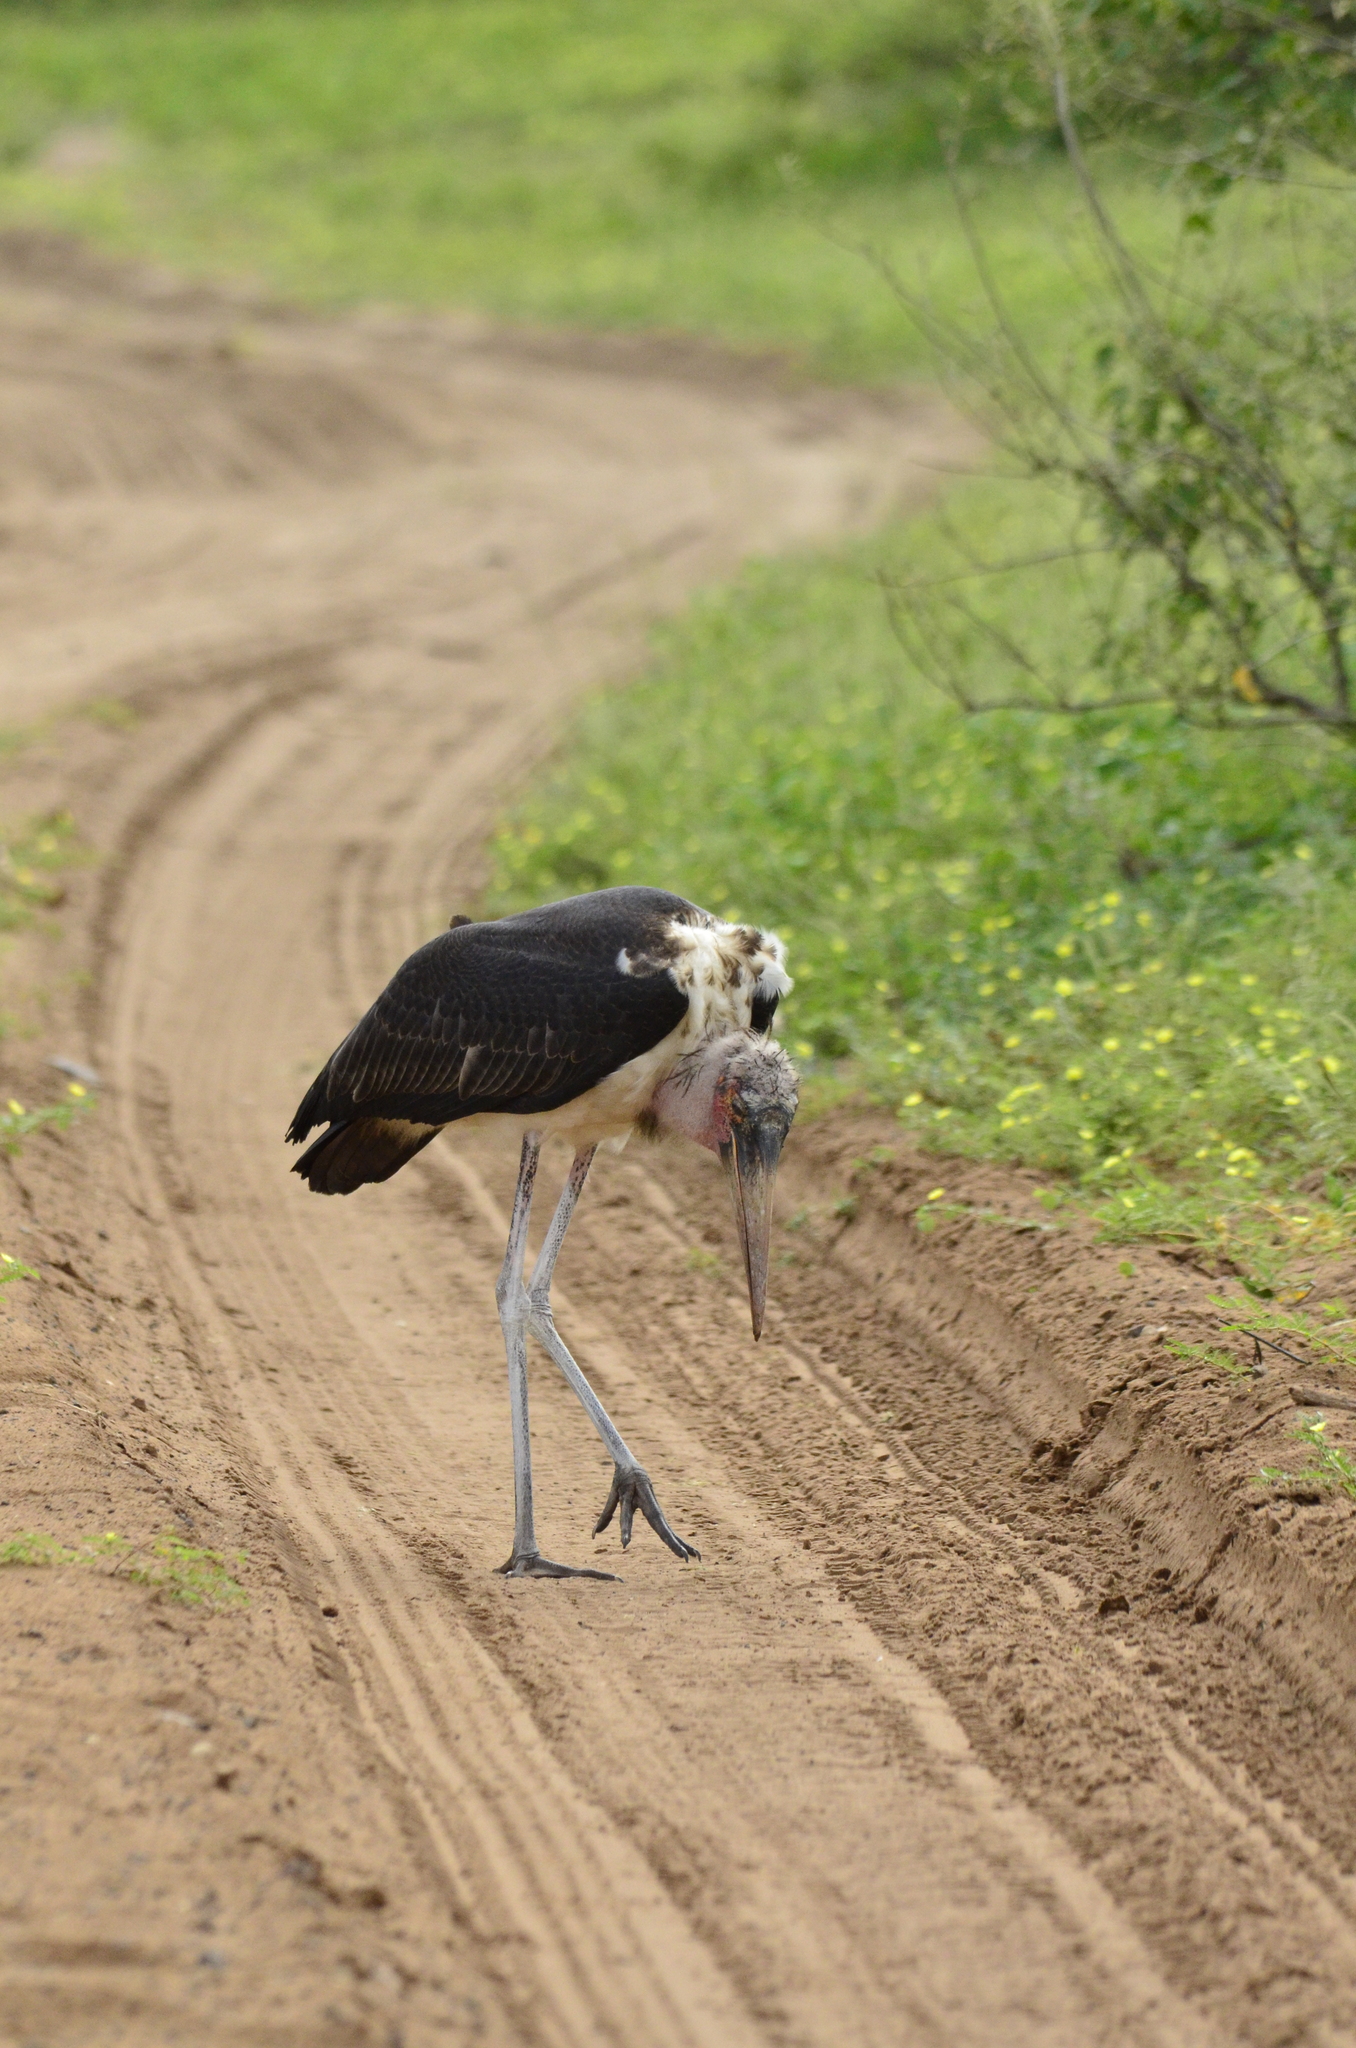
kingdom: Animalia
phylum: Chordata
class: Aves
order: Ciconiiformes
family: Ciconiidae
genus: Leptoptilos
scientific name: Leptoptilos crumenifer
